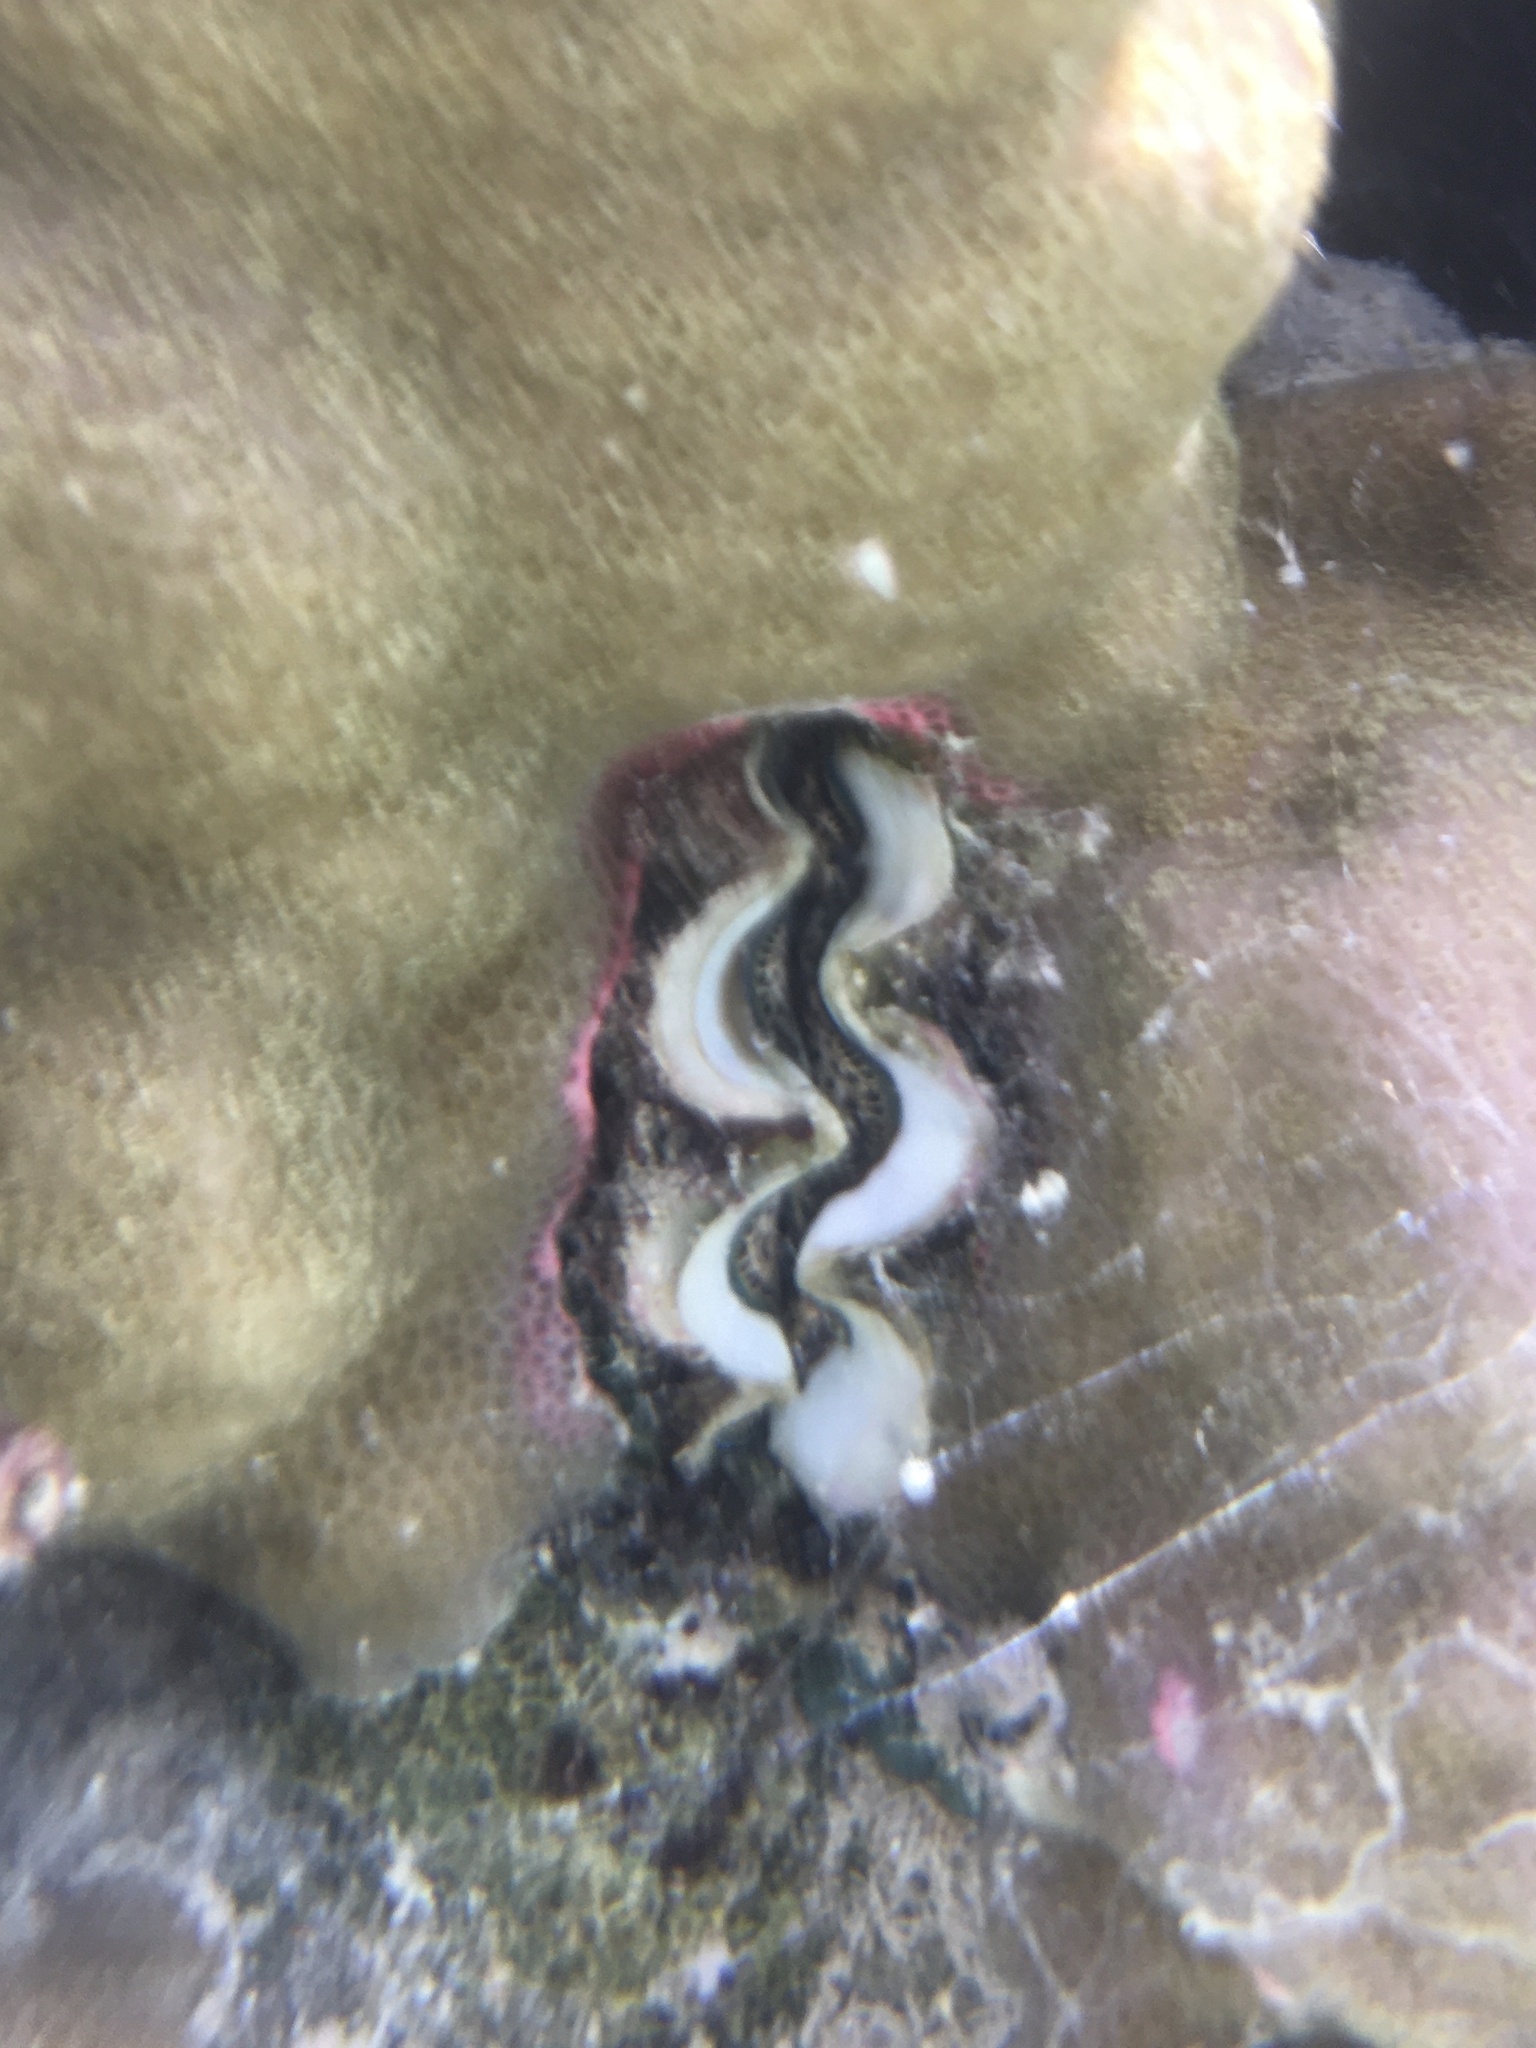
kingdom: Animalia
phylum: Mollusca
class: Bivalvia
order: Cardiida
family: Cardiidae
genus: Tridacna
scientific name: Tridacna maxima
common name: Small giant clam
